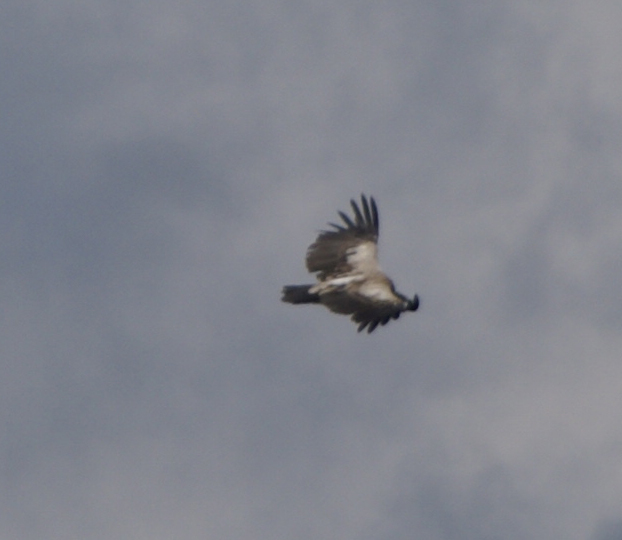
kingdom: Animalia
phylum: Chordata
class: Aves
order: Accipitriformes
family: Accipitridae
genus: Gyps
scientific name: Gyps himalayensis
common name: Himalayan griffon
